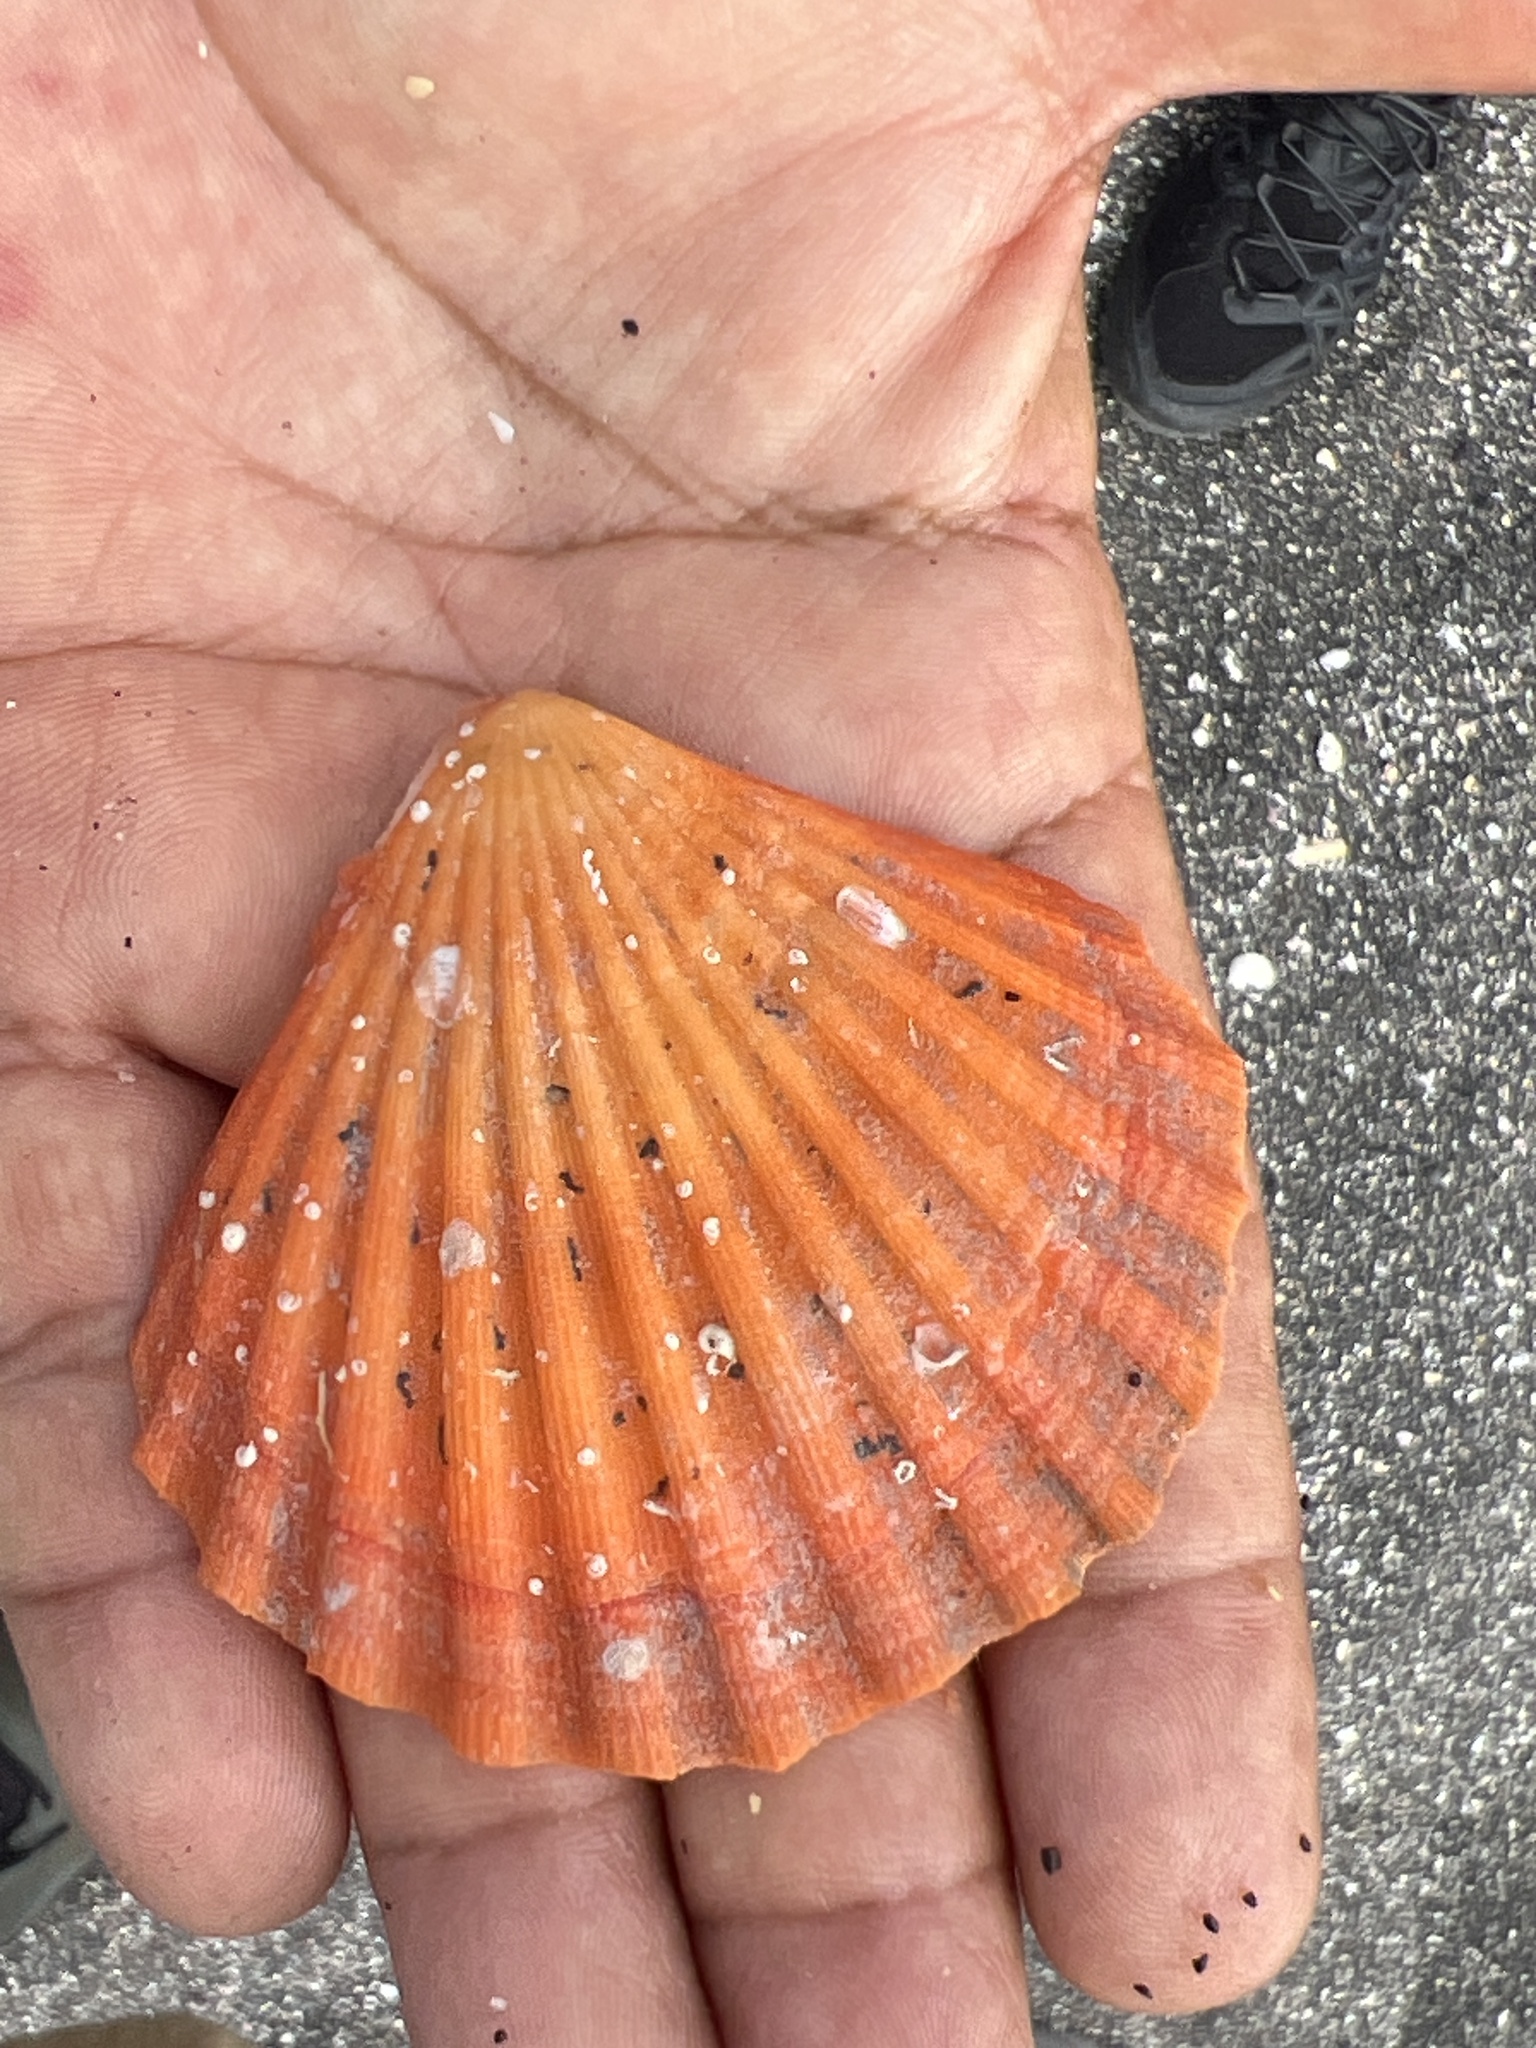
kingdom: Animalia
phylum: Mollusca
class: Bivalvia
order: Pectinida
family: Pectinidae
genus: Nodipecten
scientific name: Nodipecten magnificus
